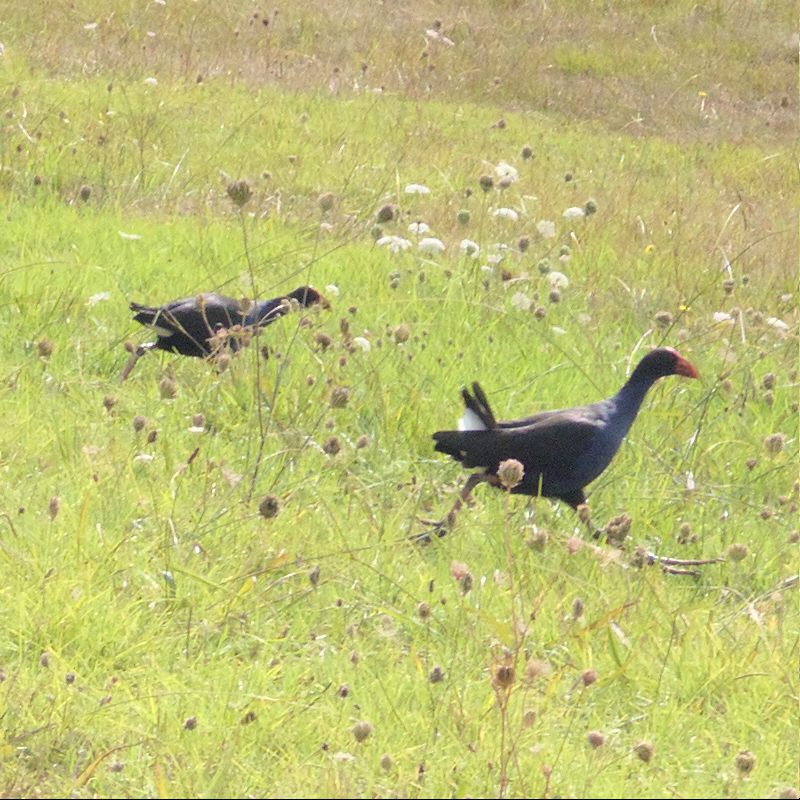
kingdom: Animalia
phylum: Chordata
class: Aves
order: Gruiformes
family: Rallidae
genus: Porphyrio
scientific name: Porphyrio melanotus
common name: Australasian swamphen
